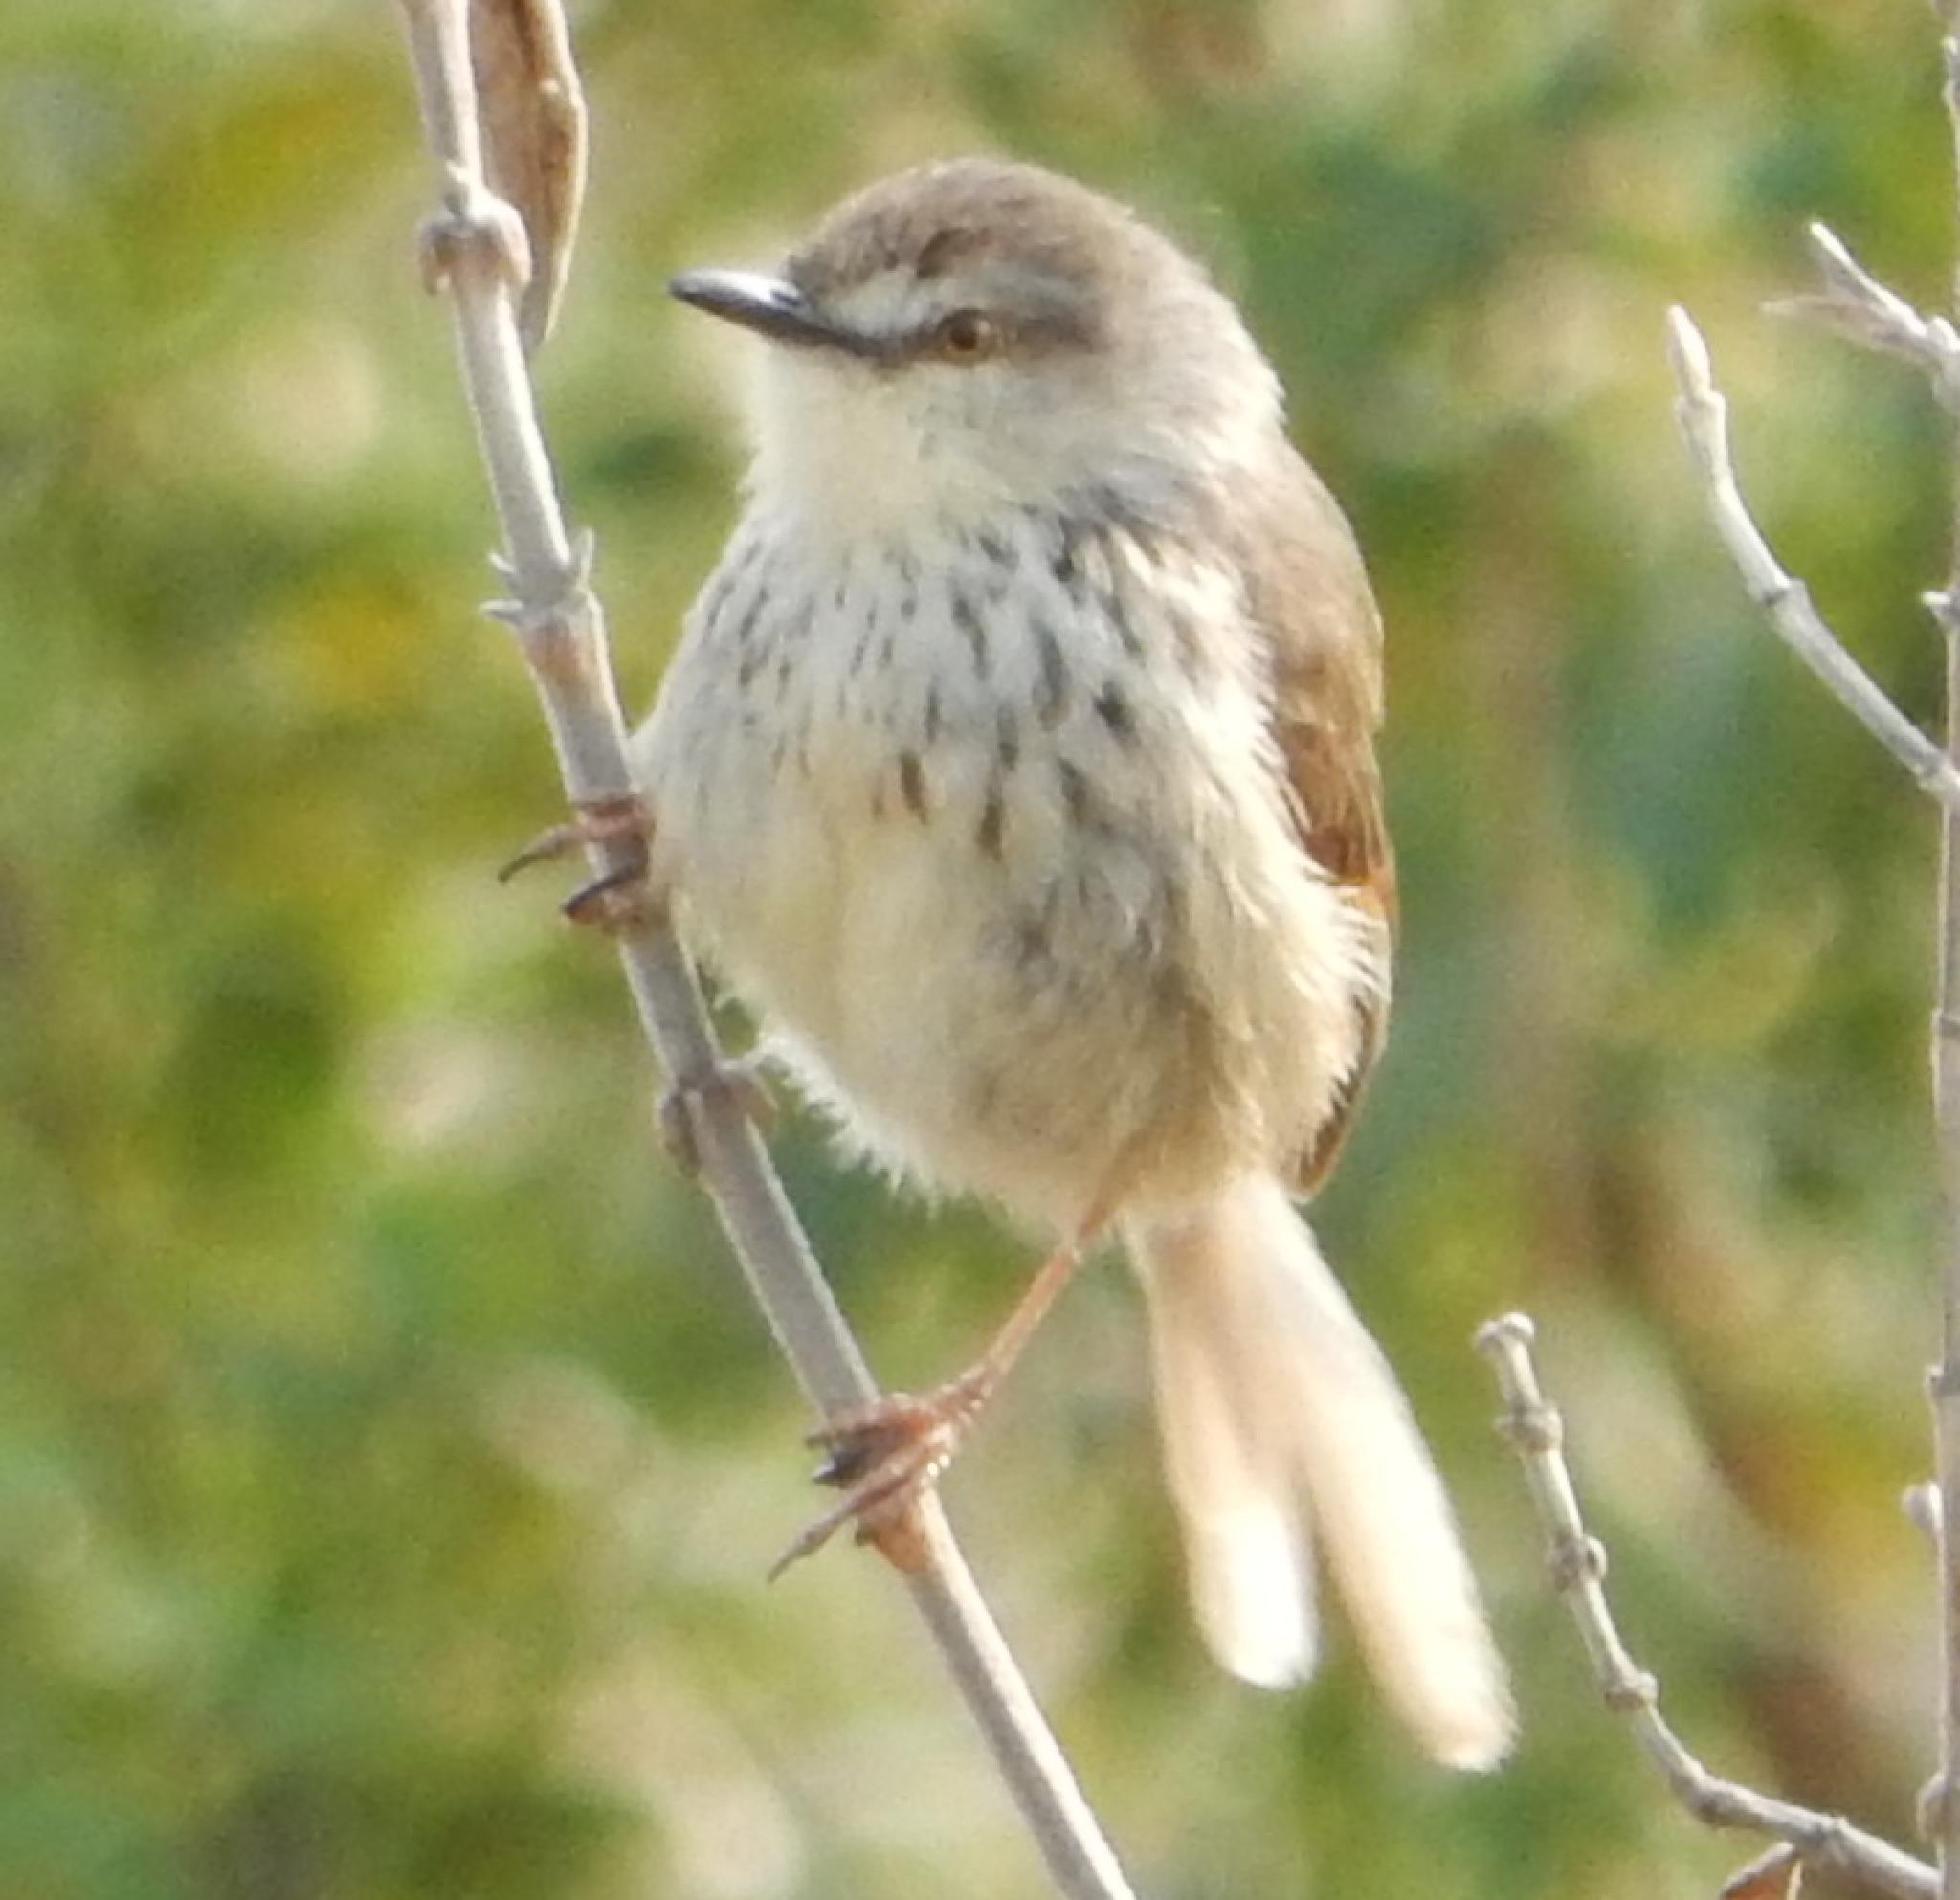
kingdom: Animalia
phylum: Chordata
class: Aves
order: Passeriformes
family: Cisticolidae
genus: Prinia
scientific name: Prinia hypoxantha
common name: Drakensberg prinia
